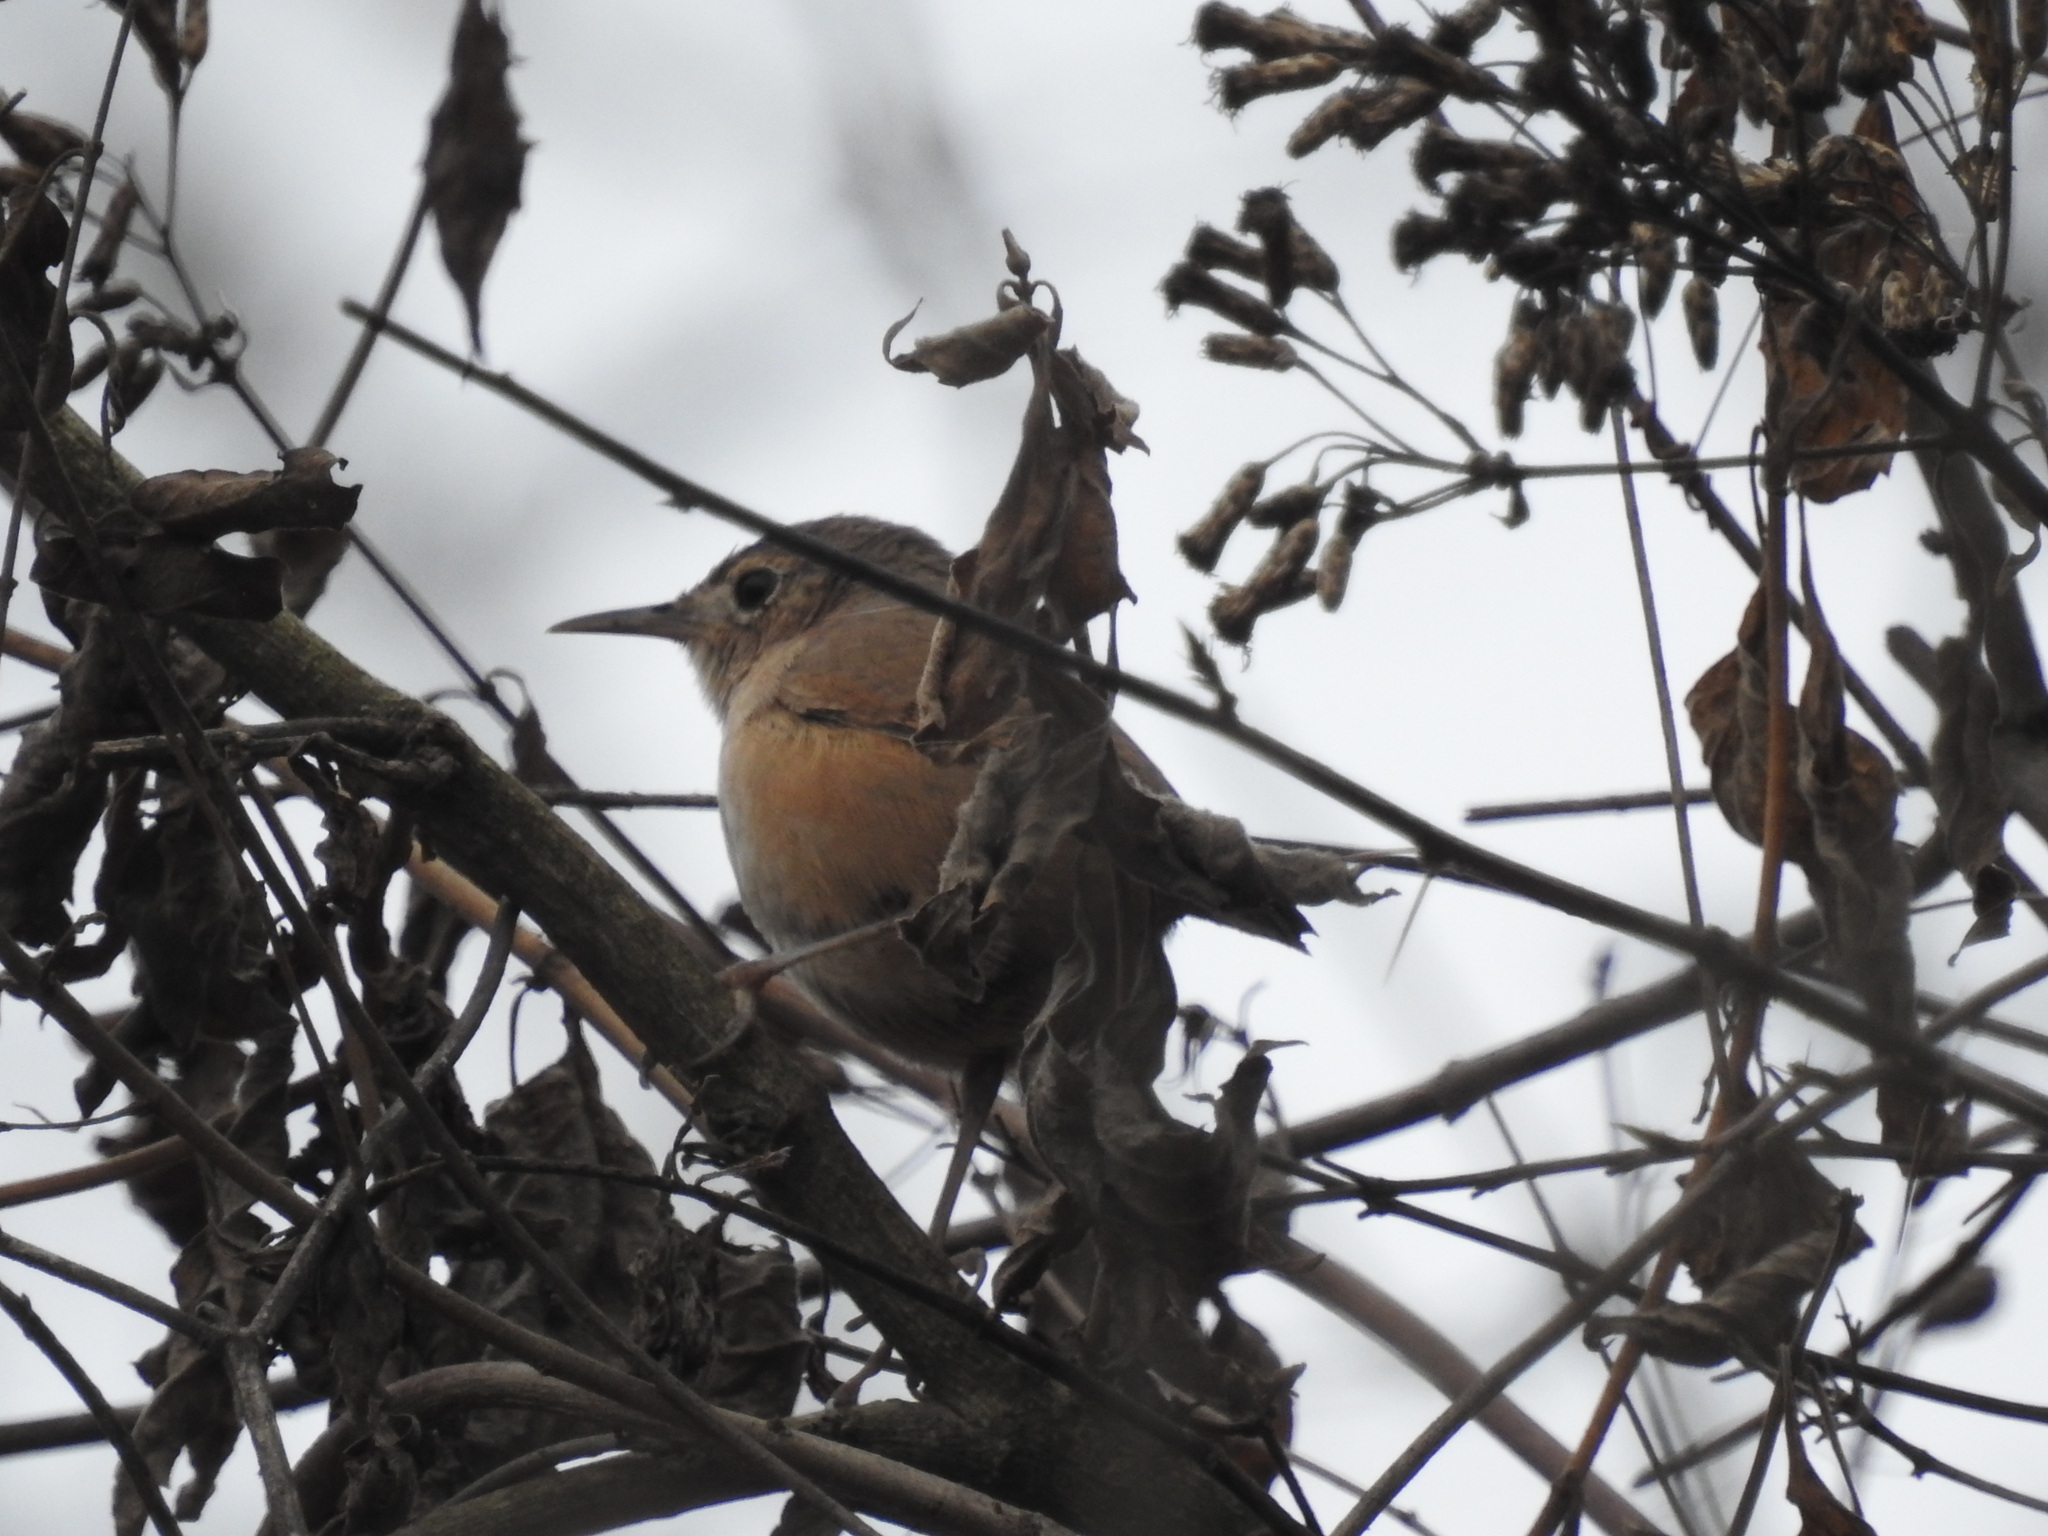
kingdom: Animalia
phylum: Chordata
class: Aves
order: Passeriformes
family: Troglodytidae
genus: Troglodytes
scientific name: Troglodytes aedon
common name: House wren
